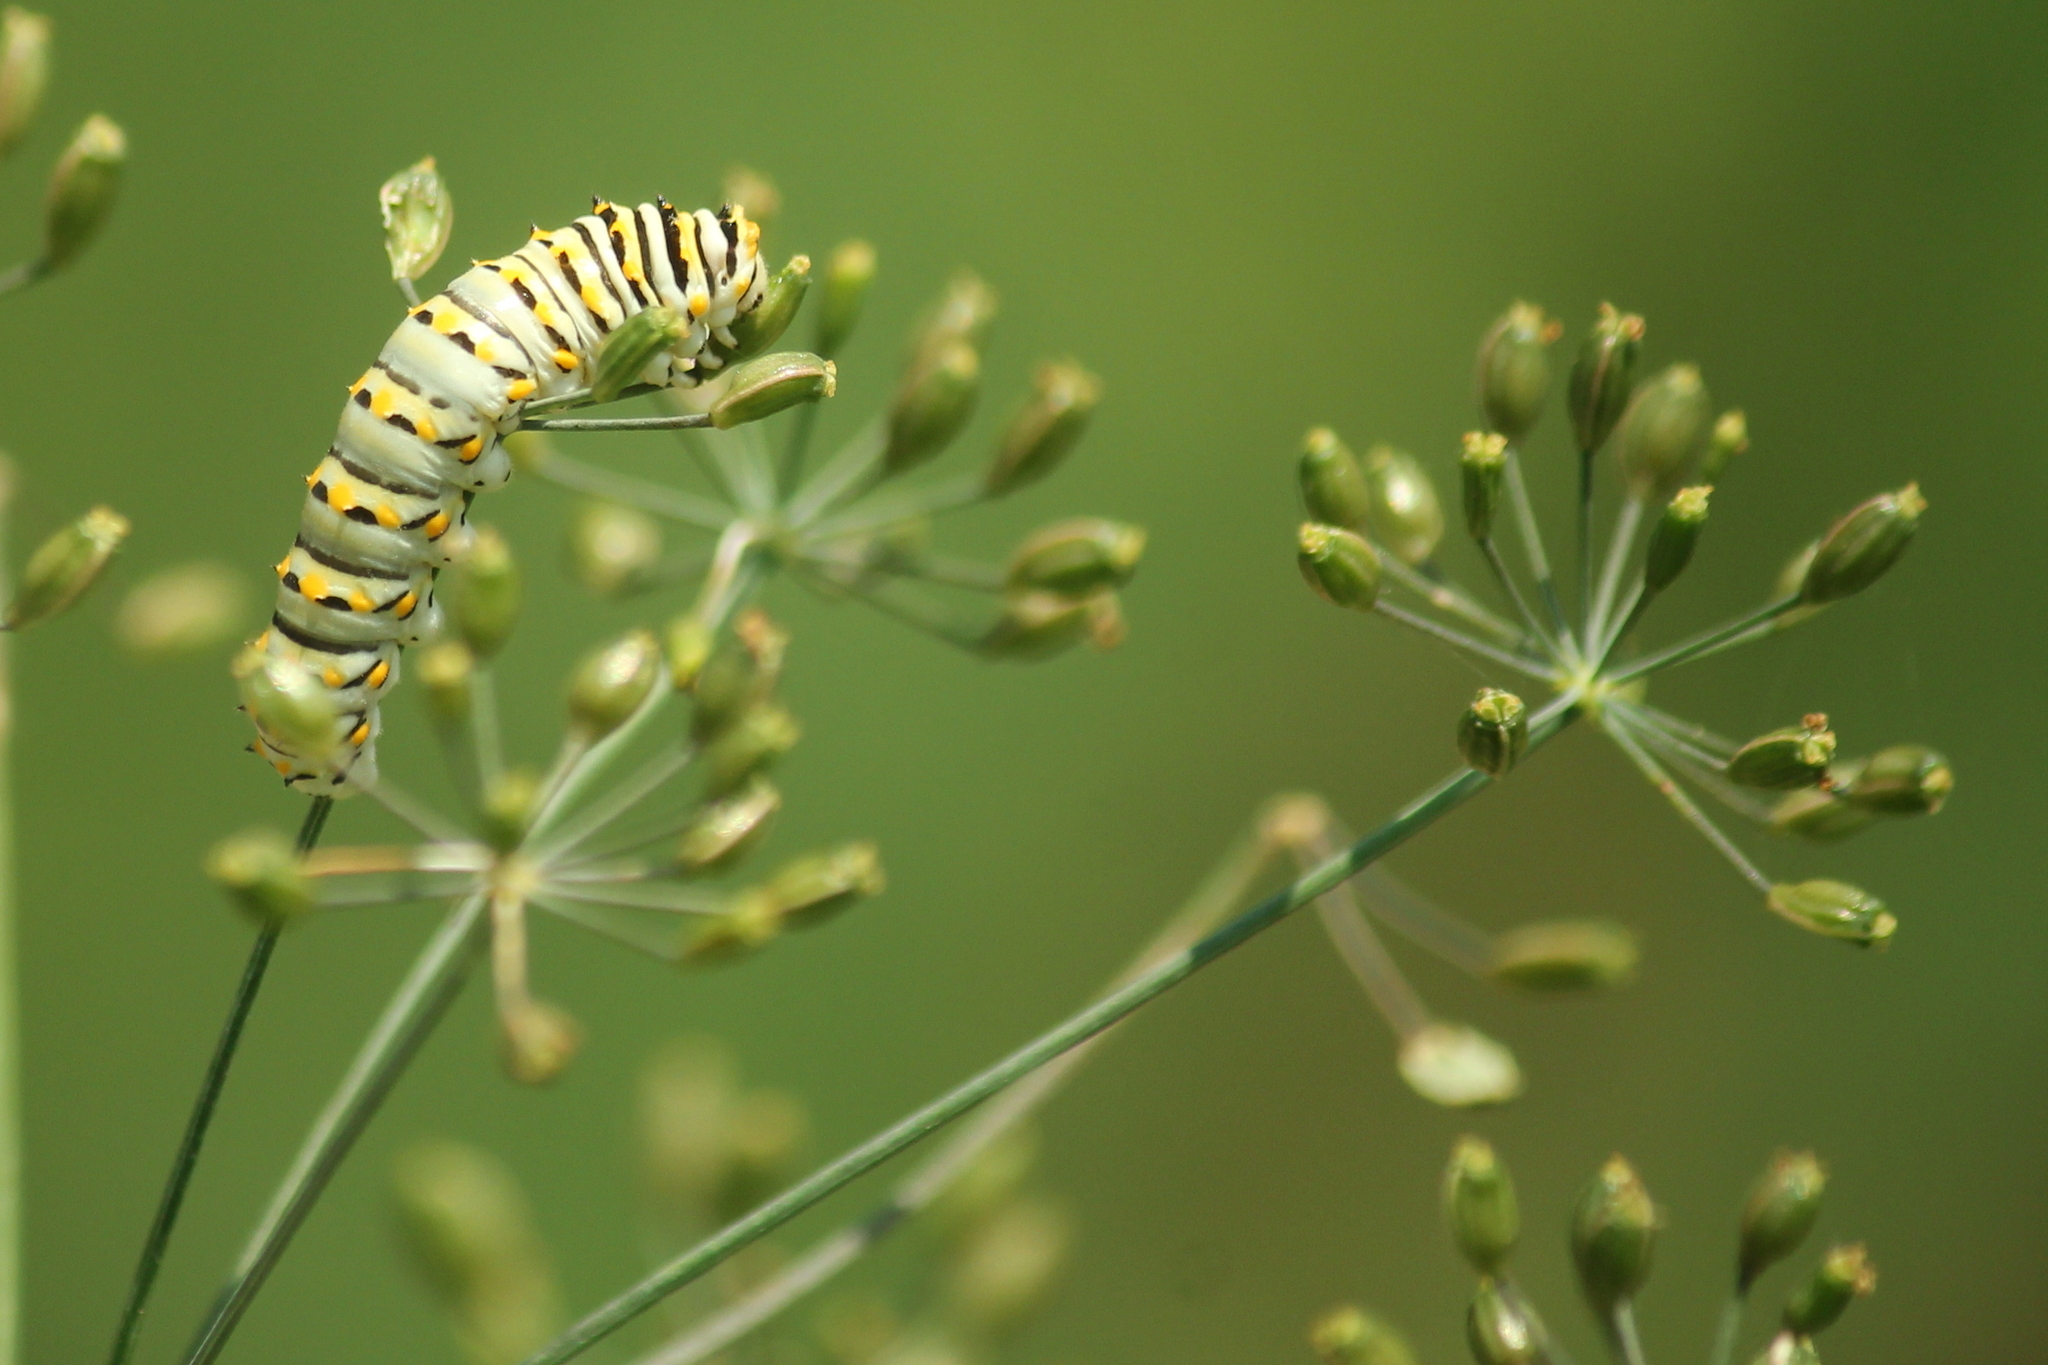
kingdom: Animalia
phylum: Arthropoda
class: Insecta
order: Lepidoptera
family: Papilionidae
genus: Papilio
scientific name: Papilio polyxenes
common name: Black swallowtail
